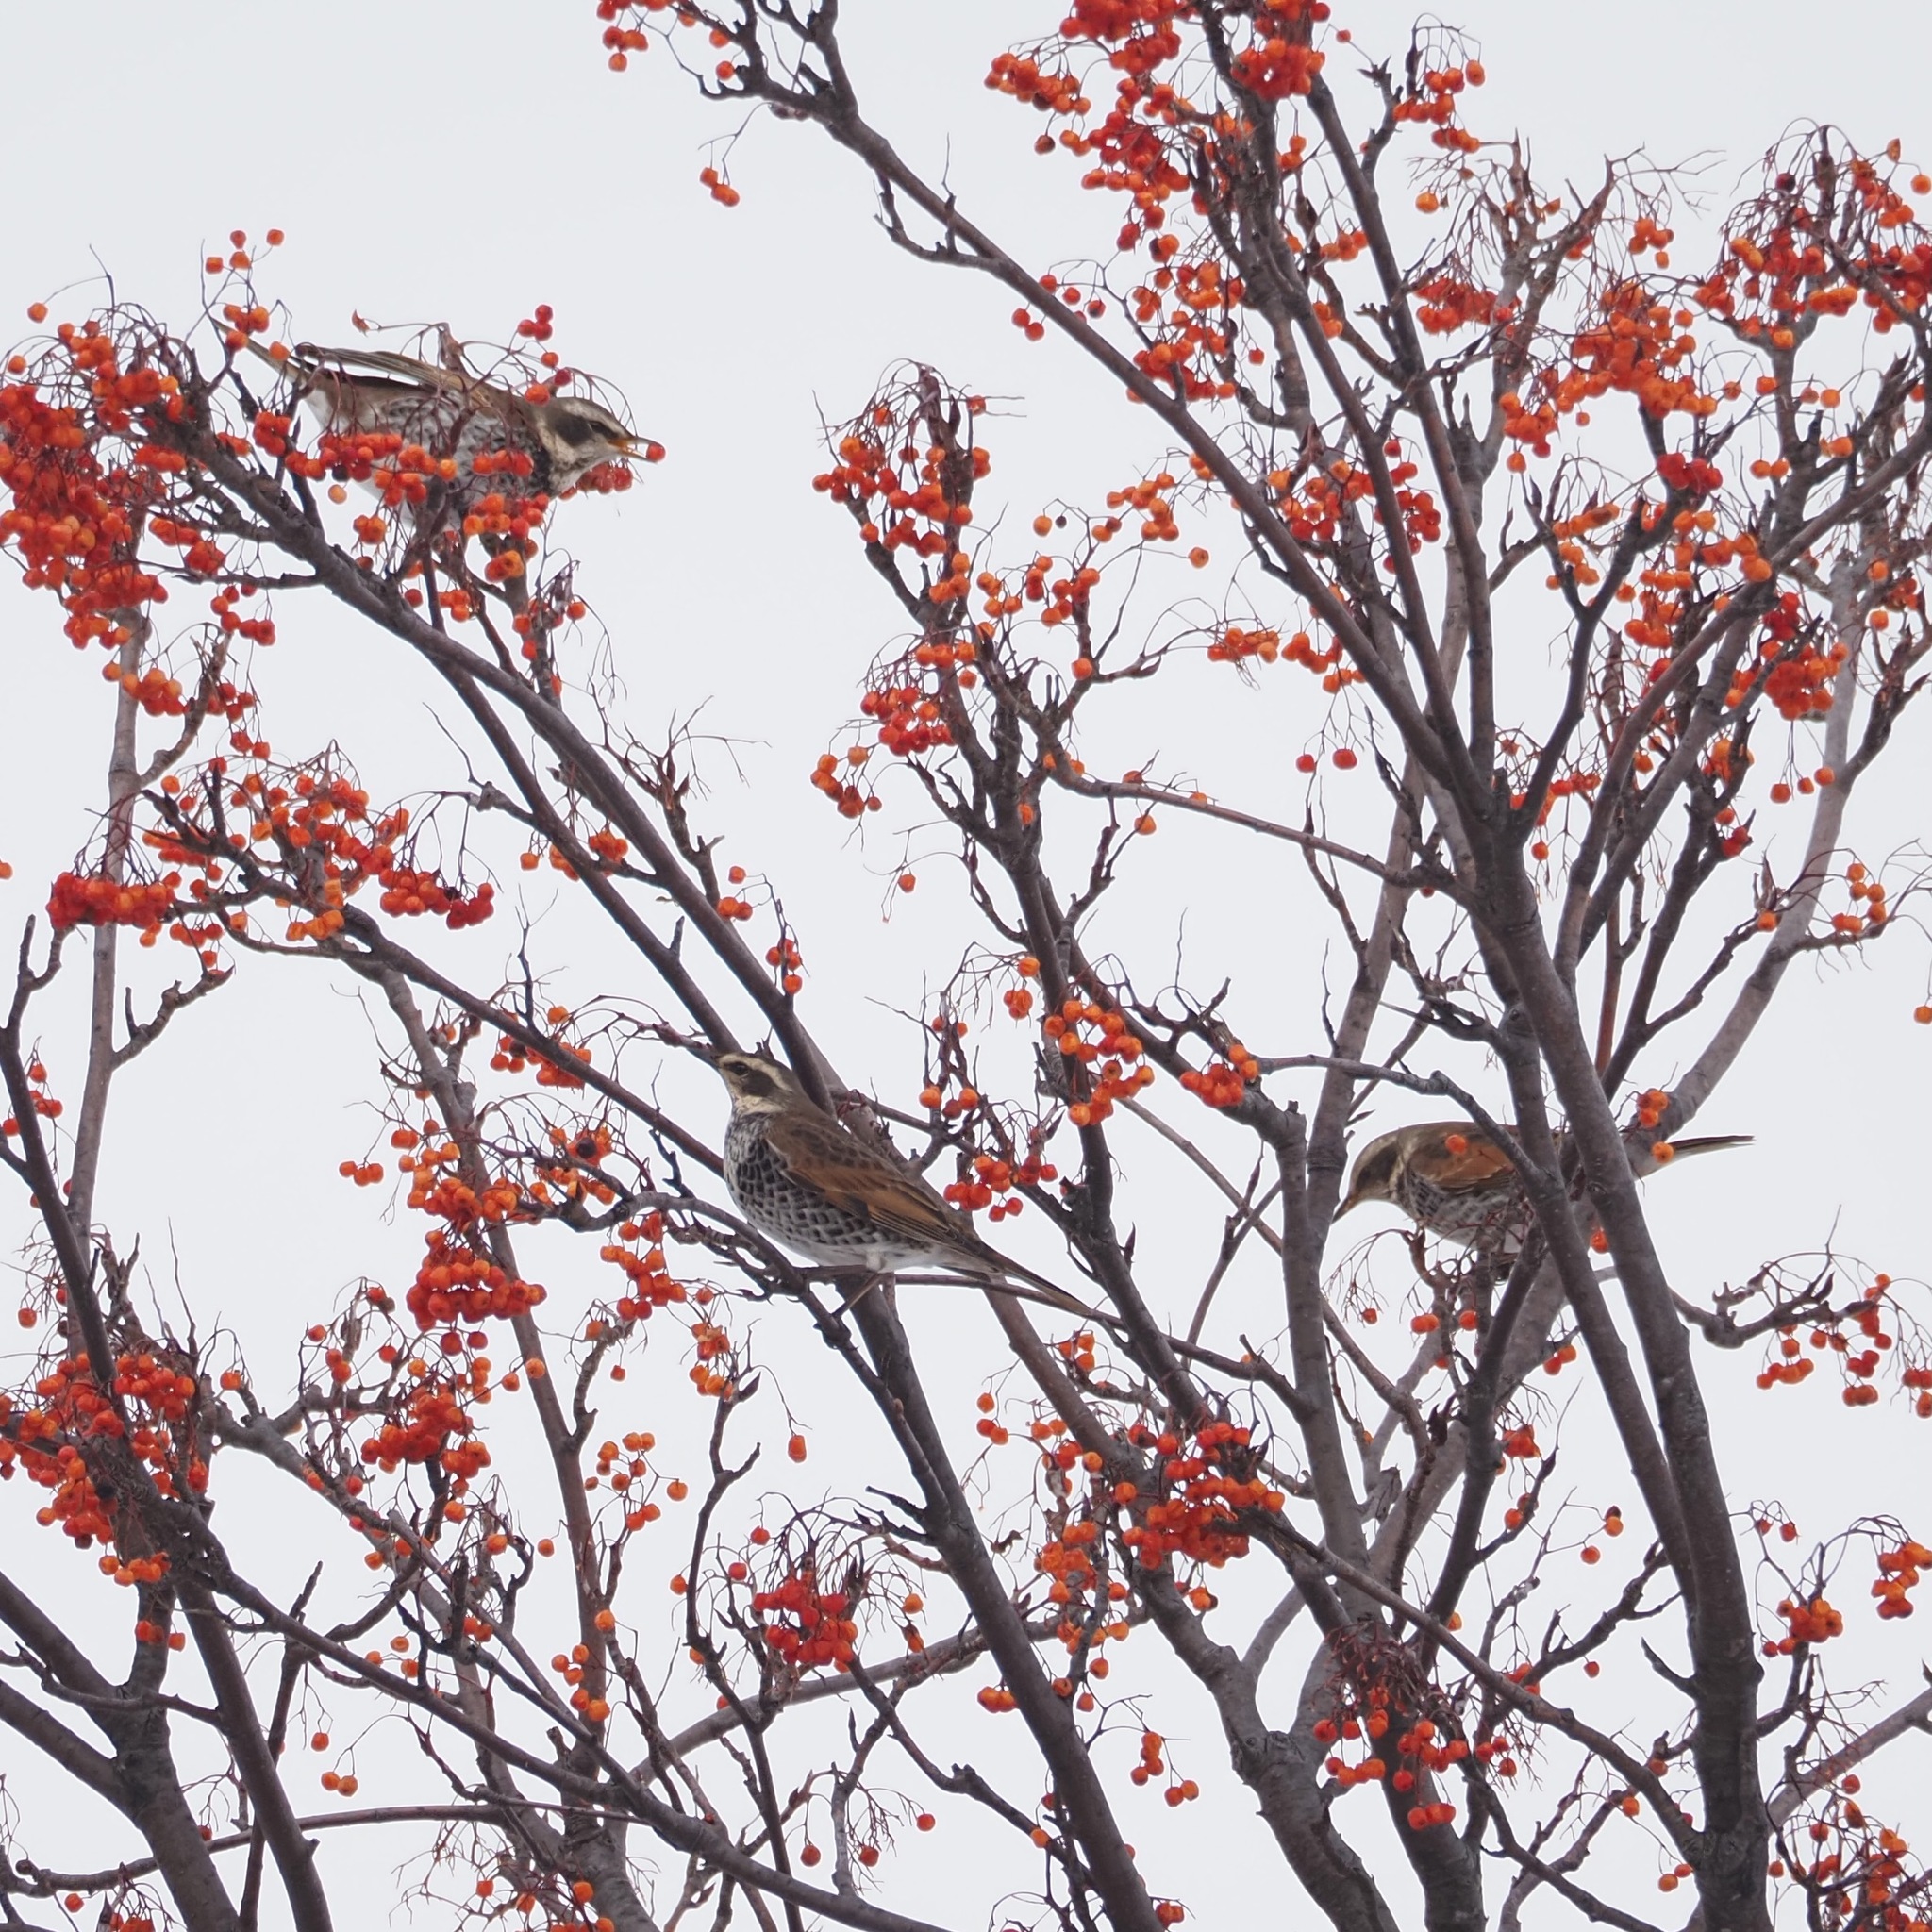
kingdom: Animalia
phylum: Chordata
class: Aves
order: Passeriformes
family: Turdidae
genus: Turdus
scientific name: Turdus eunomus
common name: Dusky thrush
